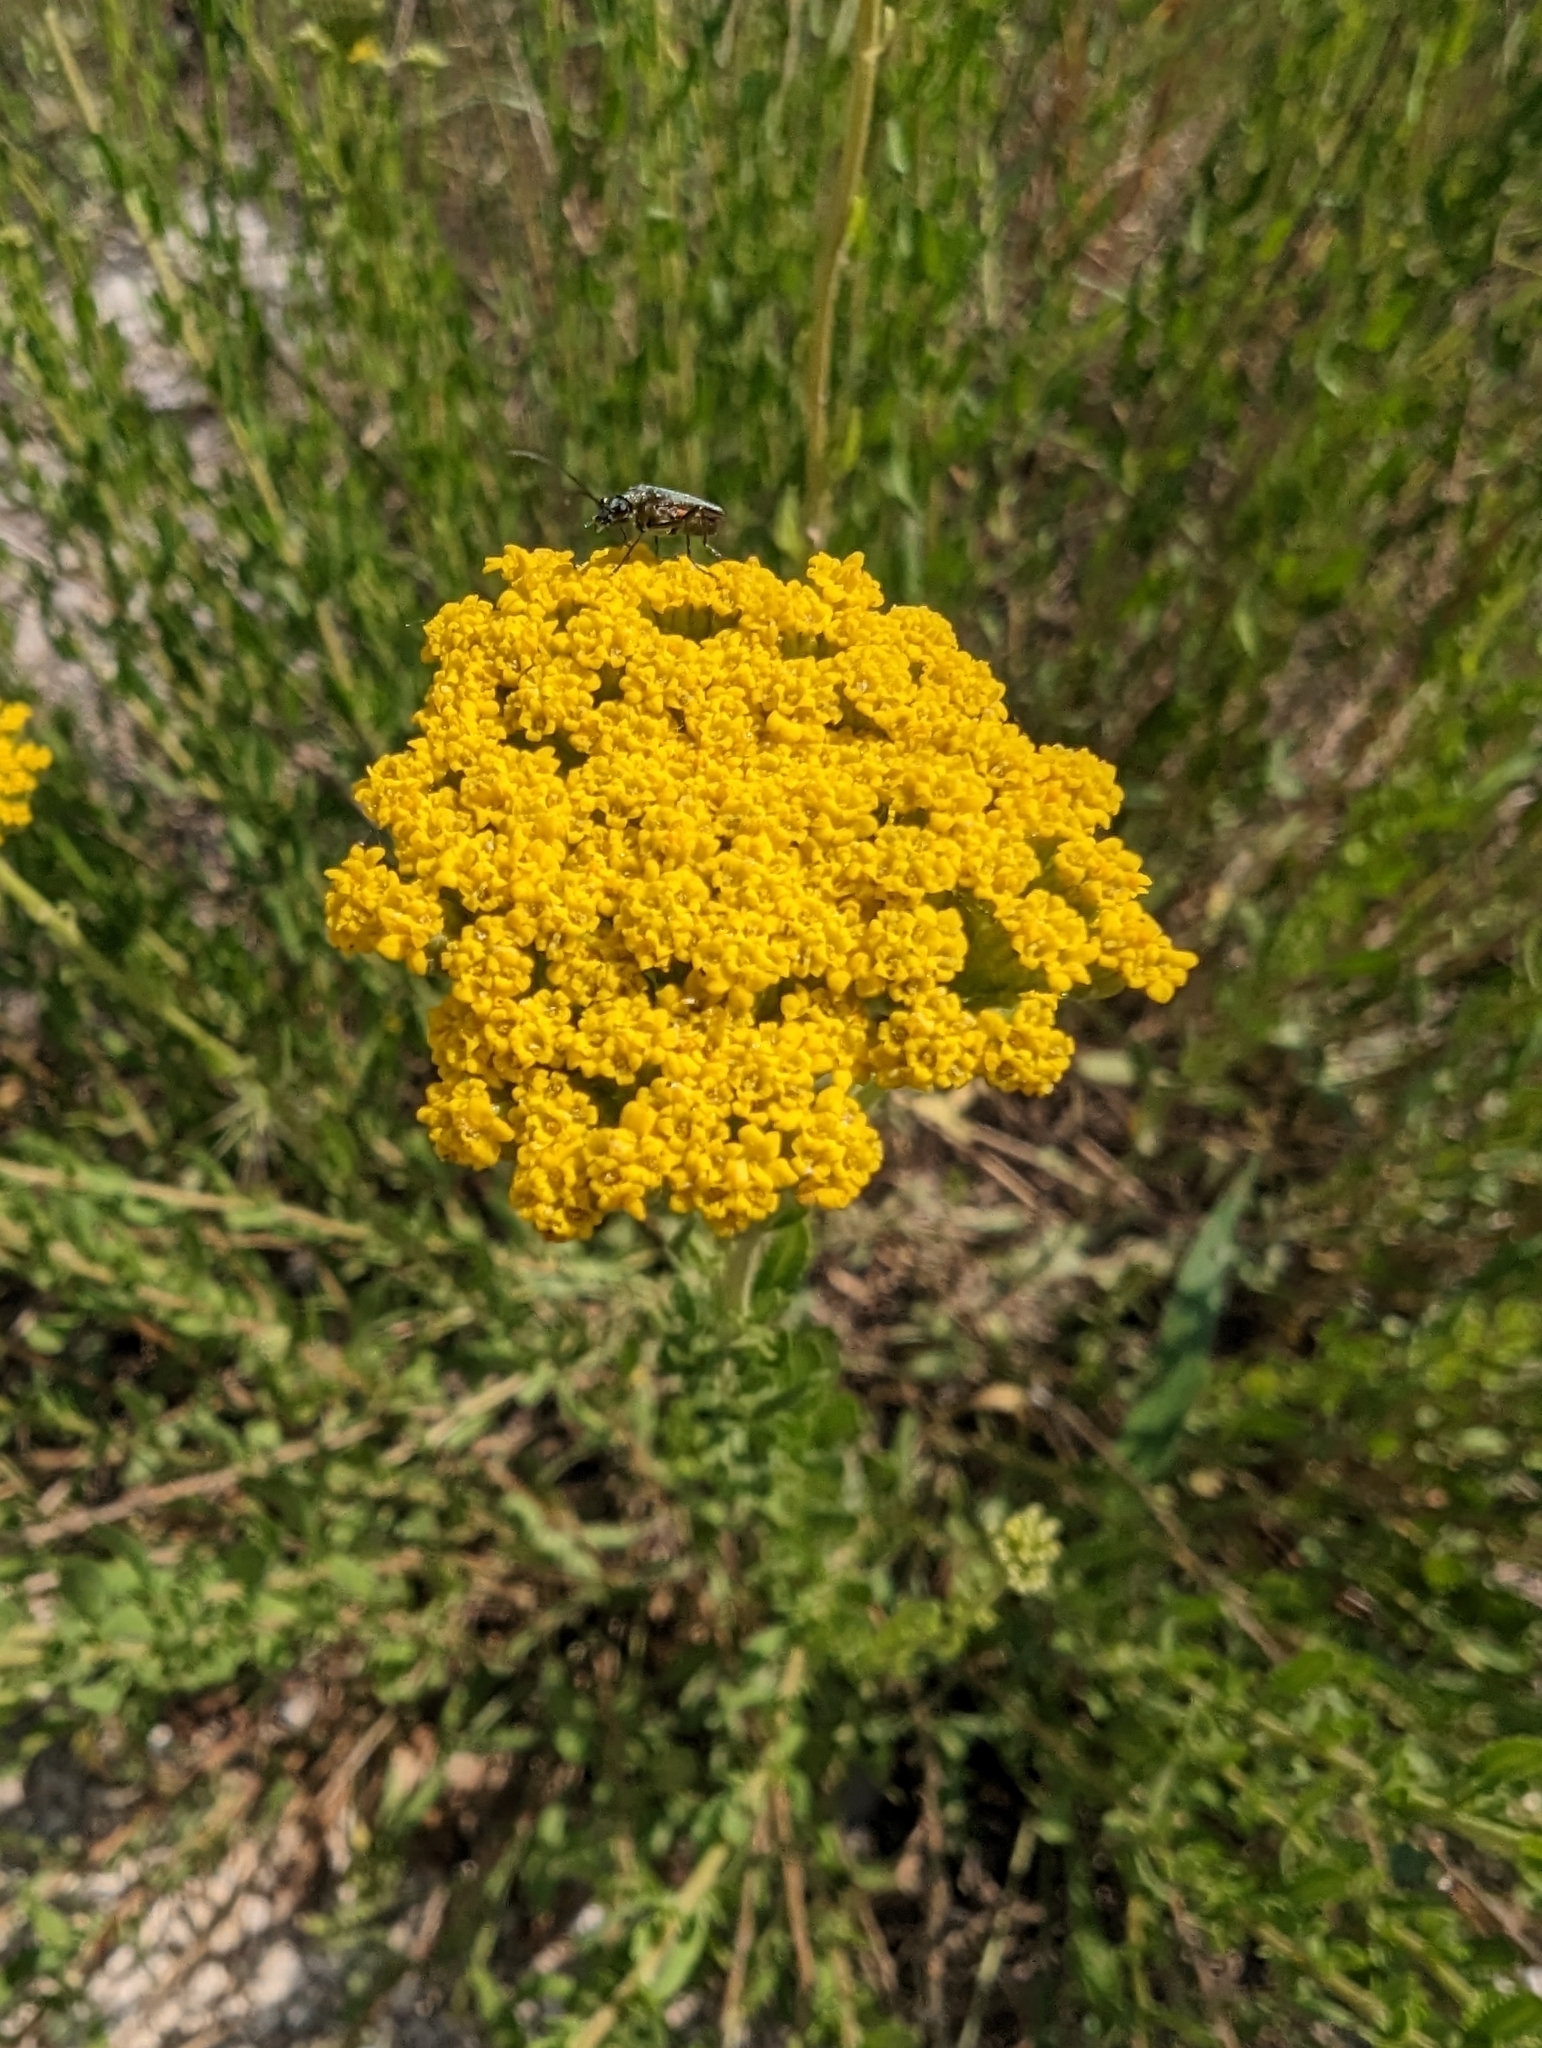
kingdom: Plantae
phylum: Tracheophyta
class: Magnoliopsida
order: Asterales
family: Asteraceae
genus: Achillea
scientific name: Achillea ageratum
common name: Sweet-nancy
